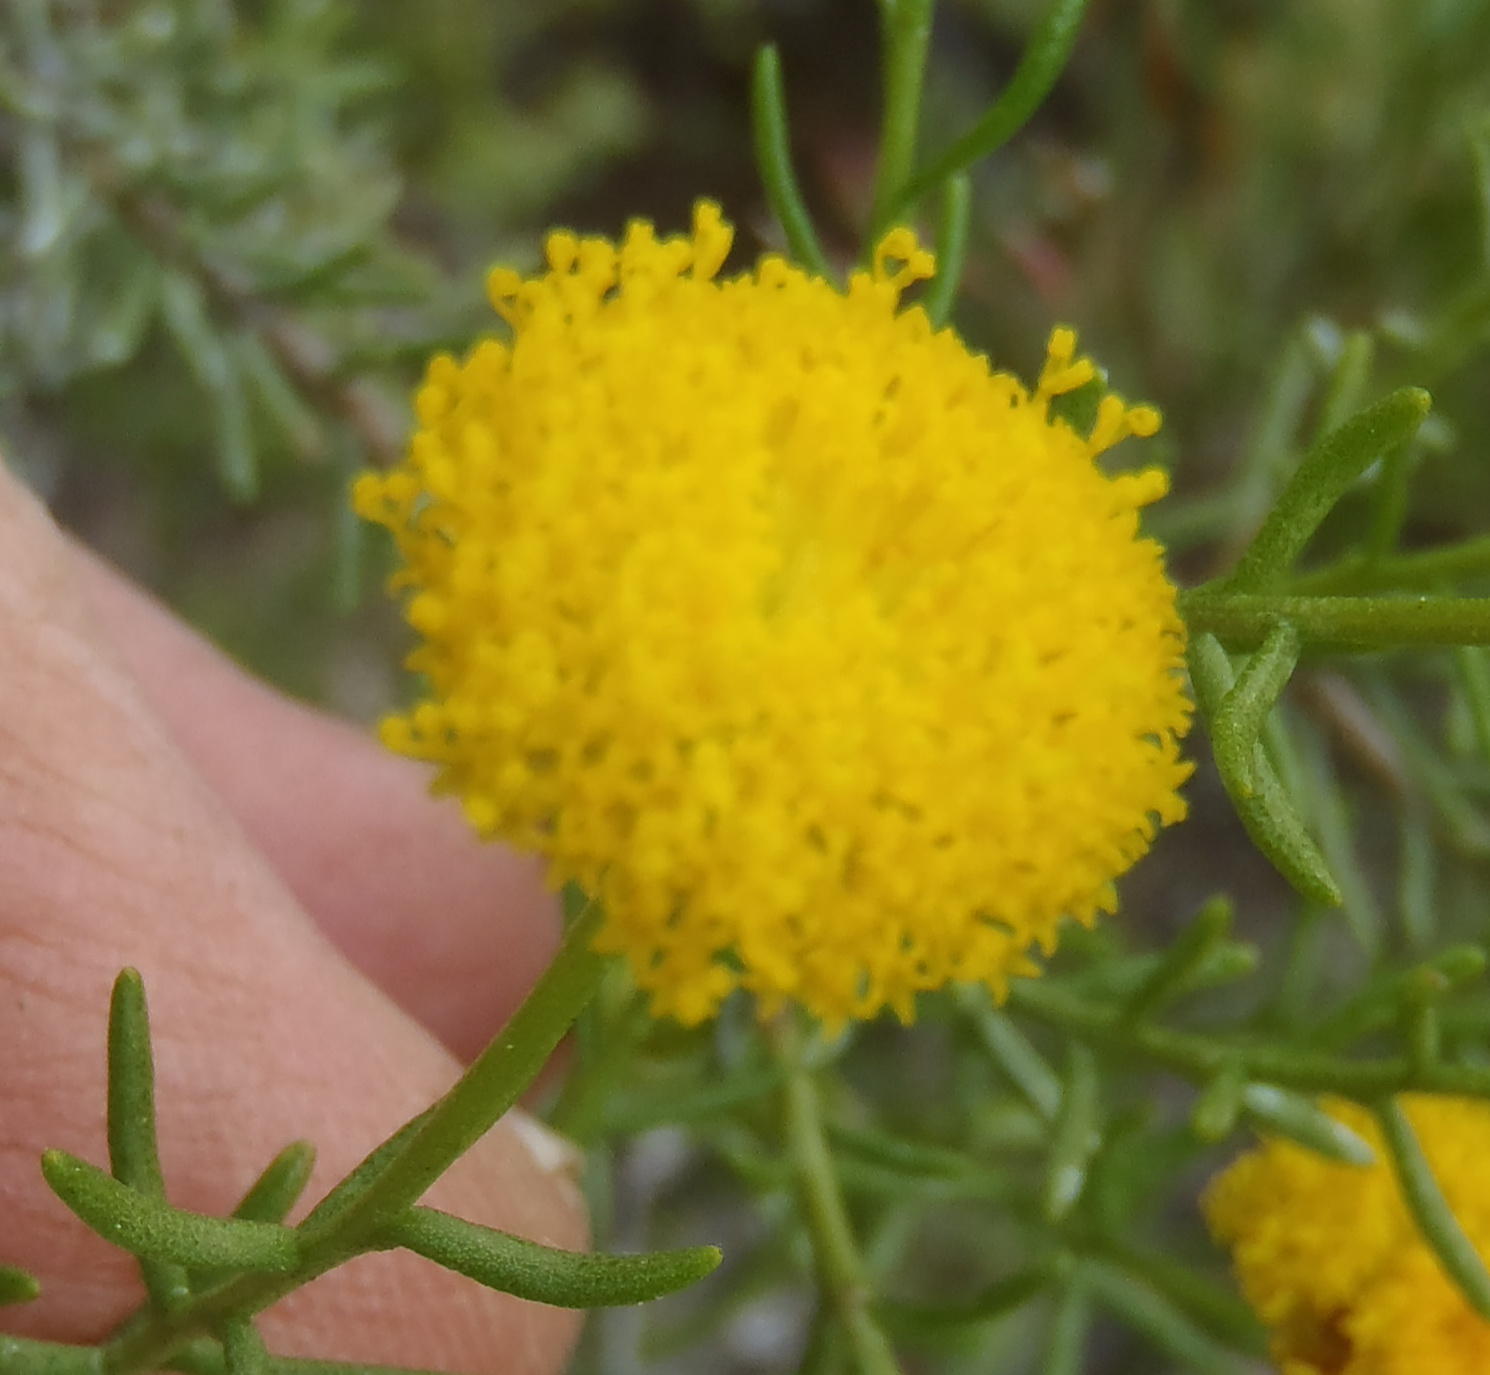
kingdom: Plantae
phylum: Tracheophyta
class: Magnoliopsida
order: Asterales
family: Asteraceae
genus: Chrysocoma
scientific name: Chrysocoma ciliata
